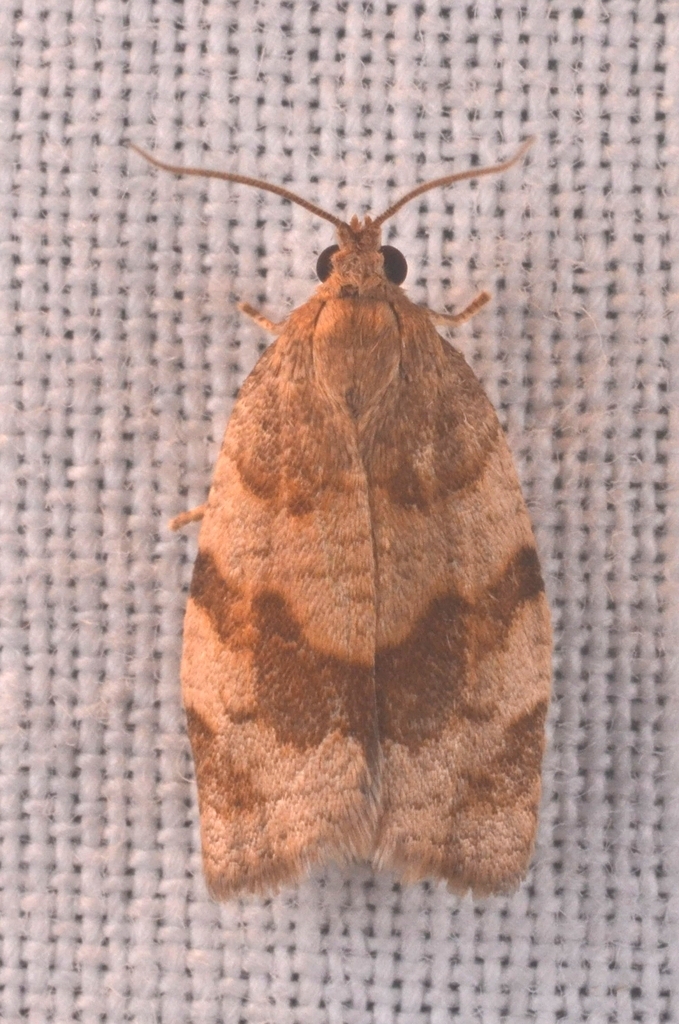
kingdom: Animalia
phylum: Arthropoda
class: Insecta
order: Lepidoptera
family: Tortricidae
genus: Choristoneura
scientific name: Choristoneura diversana
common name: Forest tortrix
